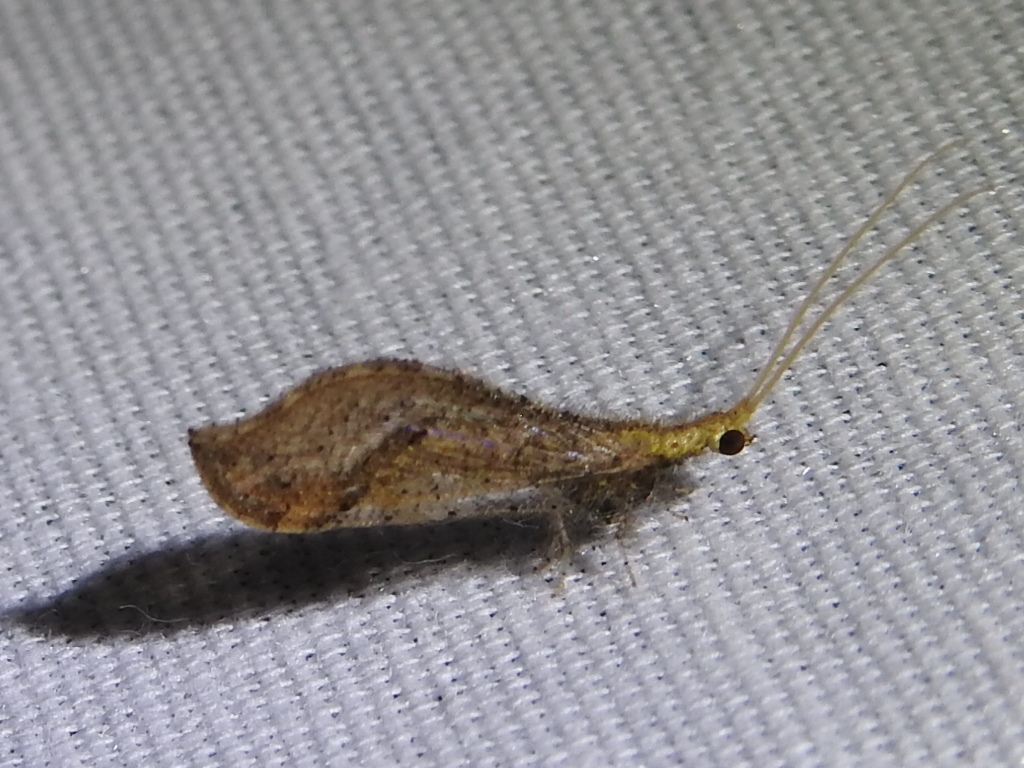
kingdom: Animalia
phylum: Arthropoda
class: Insecta
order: Neuroptera
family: Berothidae
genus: Lomamyia
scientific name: Lomamyia squamosa
